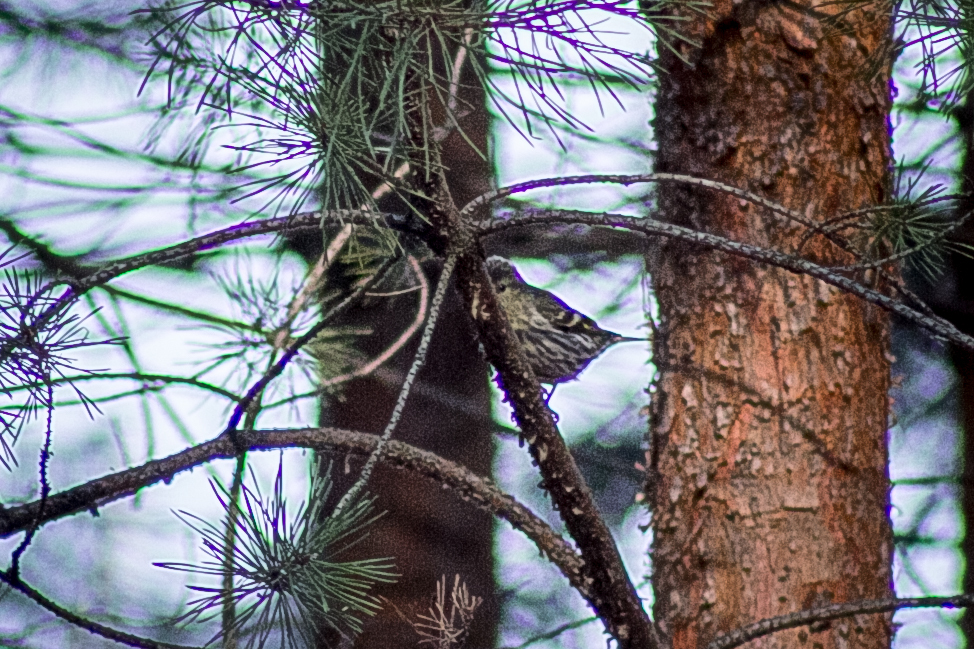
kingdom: Animalia
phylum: Chordata
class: Aves
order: Passeriformes
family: Fringillidae
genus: Spinus
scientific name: Spinus spinus
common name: Eurasian siskin
